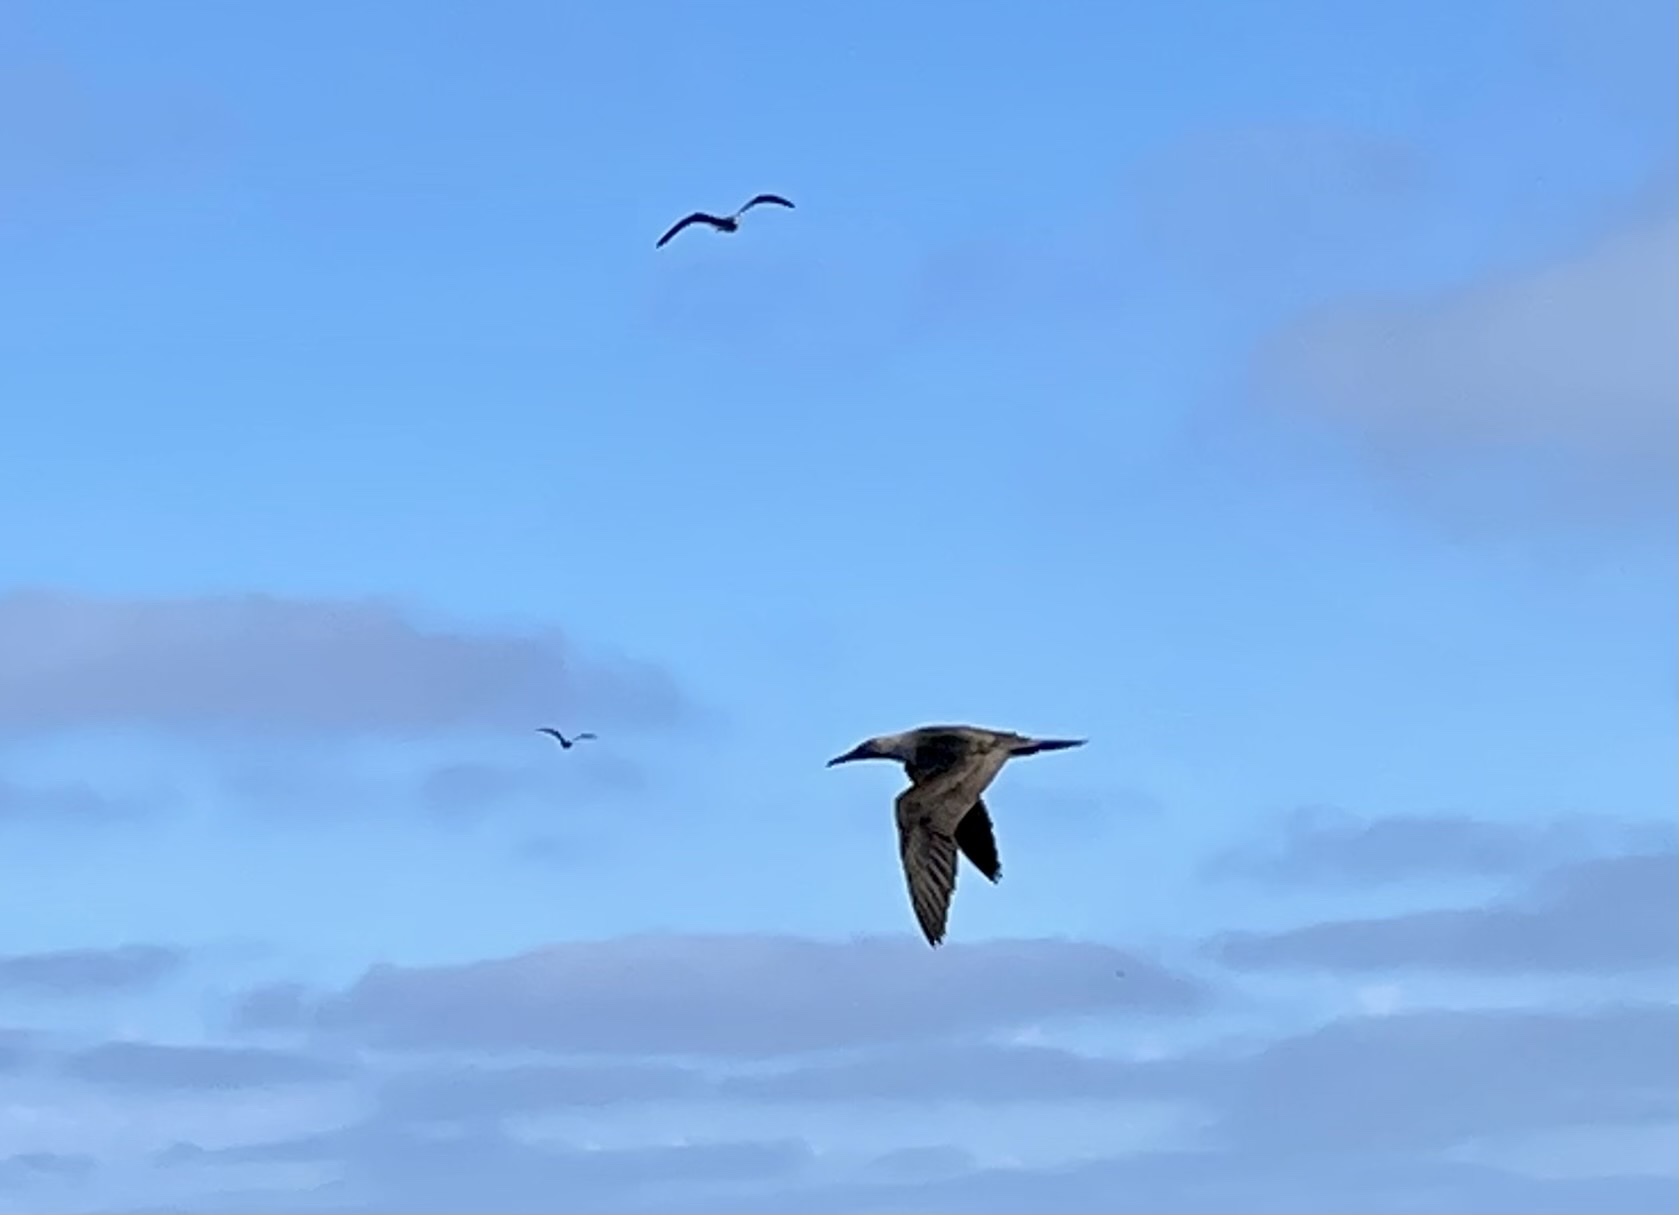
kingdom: Animalia
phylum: Chordata
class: Aves
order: Suliformes
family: Sulidae
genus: Sula
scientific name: Sula nebouxii
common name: Blue-footed booby
